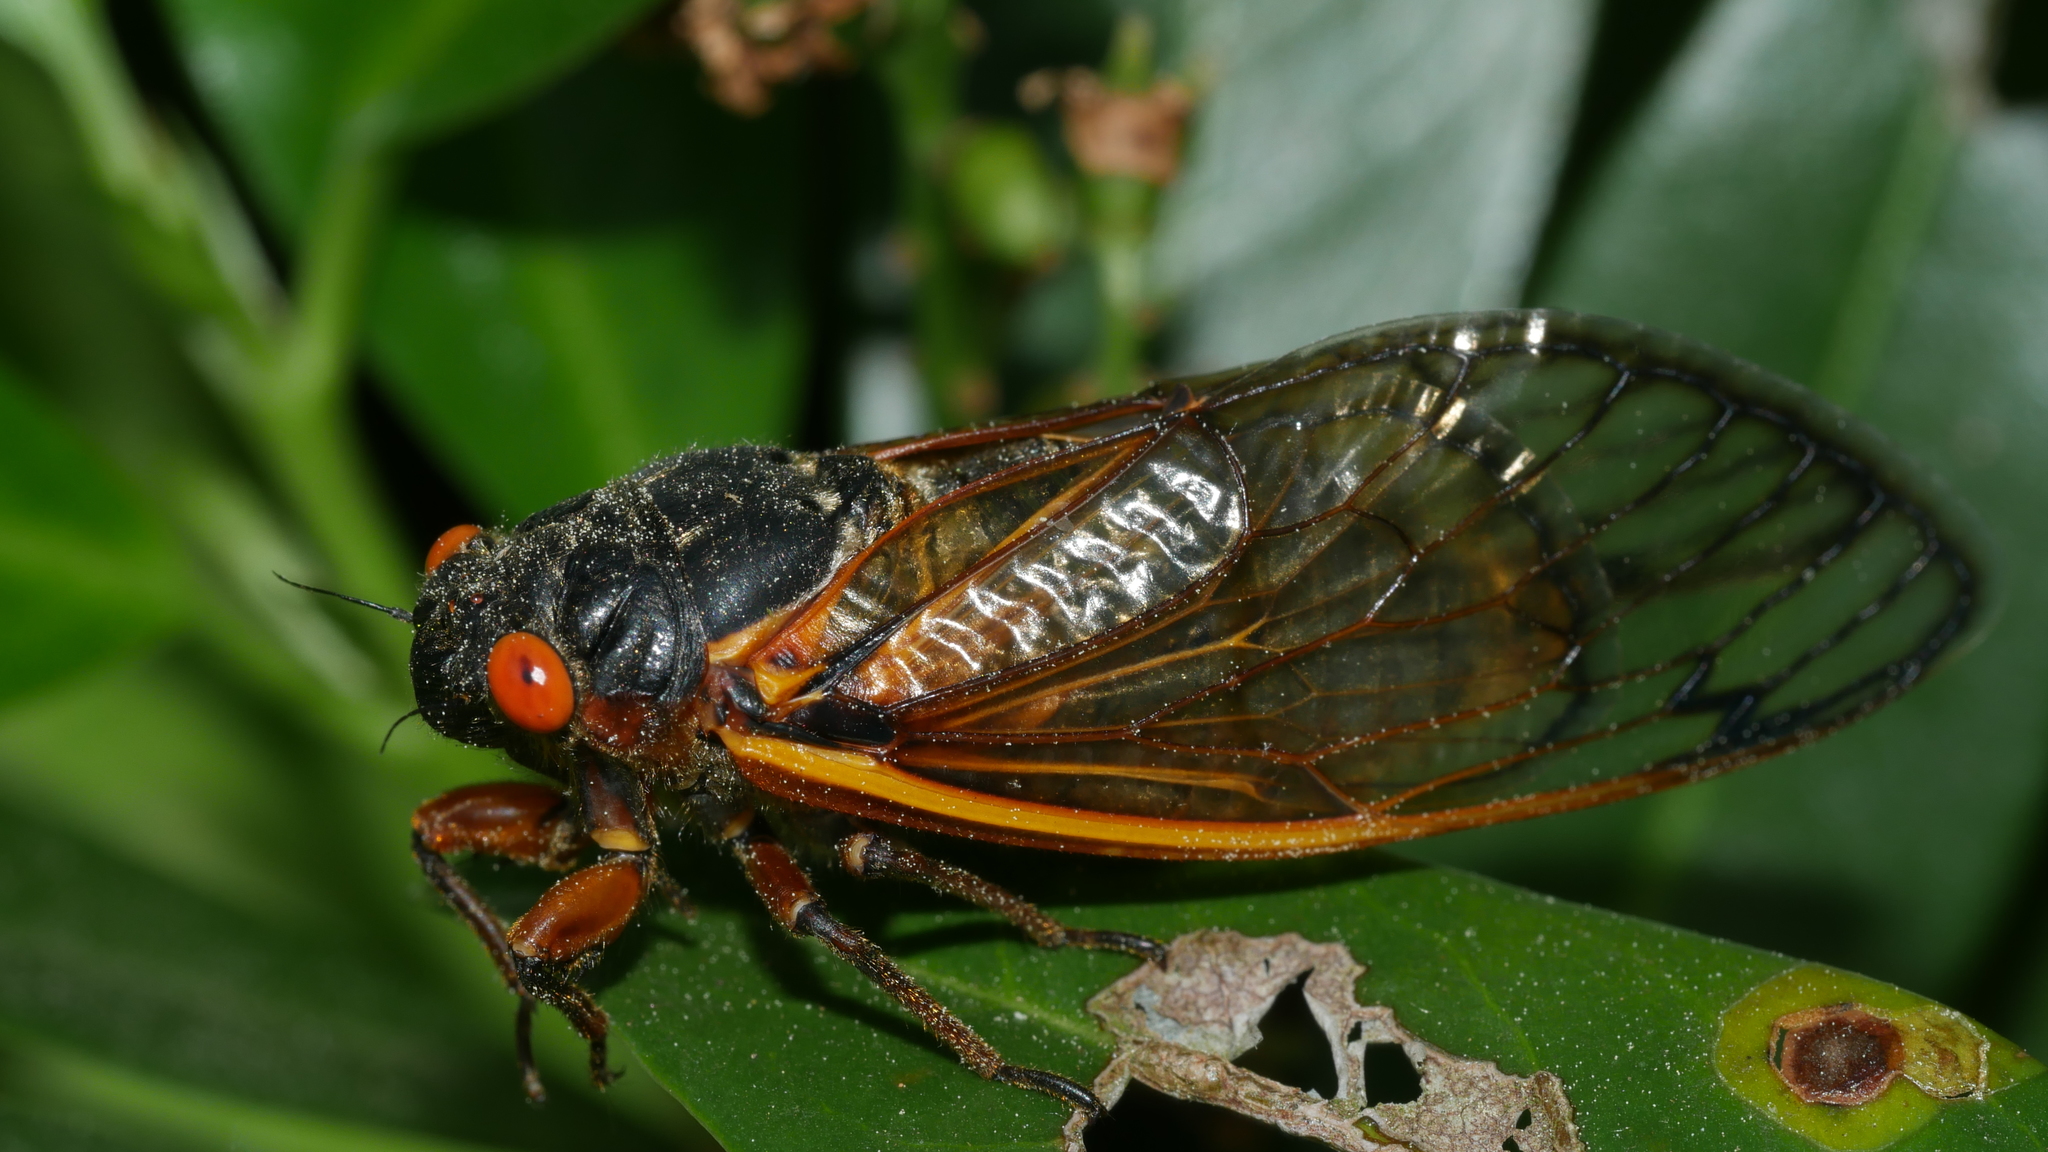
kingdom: Animalia
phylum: Arthropoda
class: Insecta
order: Hemiptera
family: Cicadidae
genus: Magicicada
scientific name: Magicicada septendecim
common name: Periodical cicada
